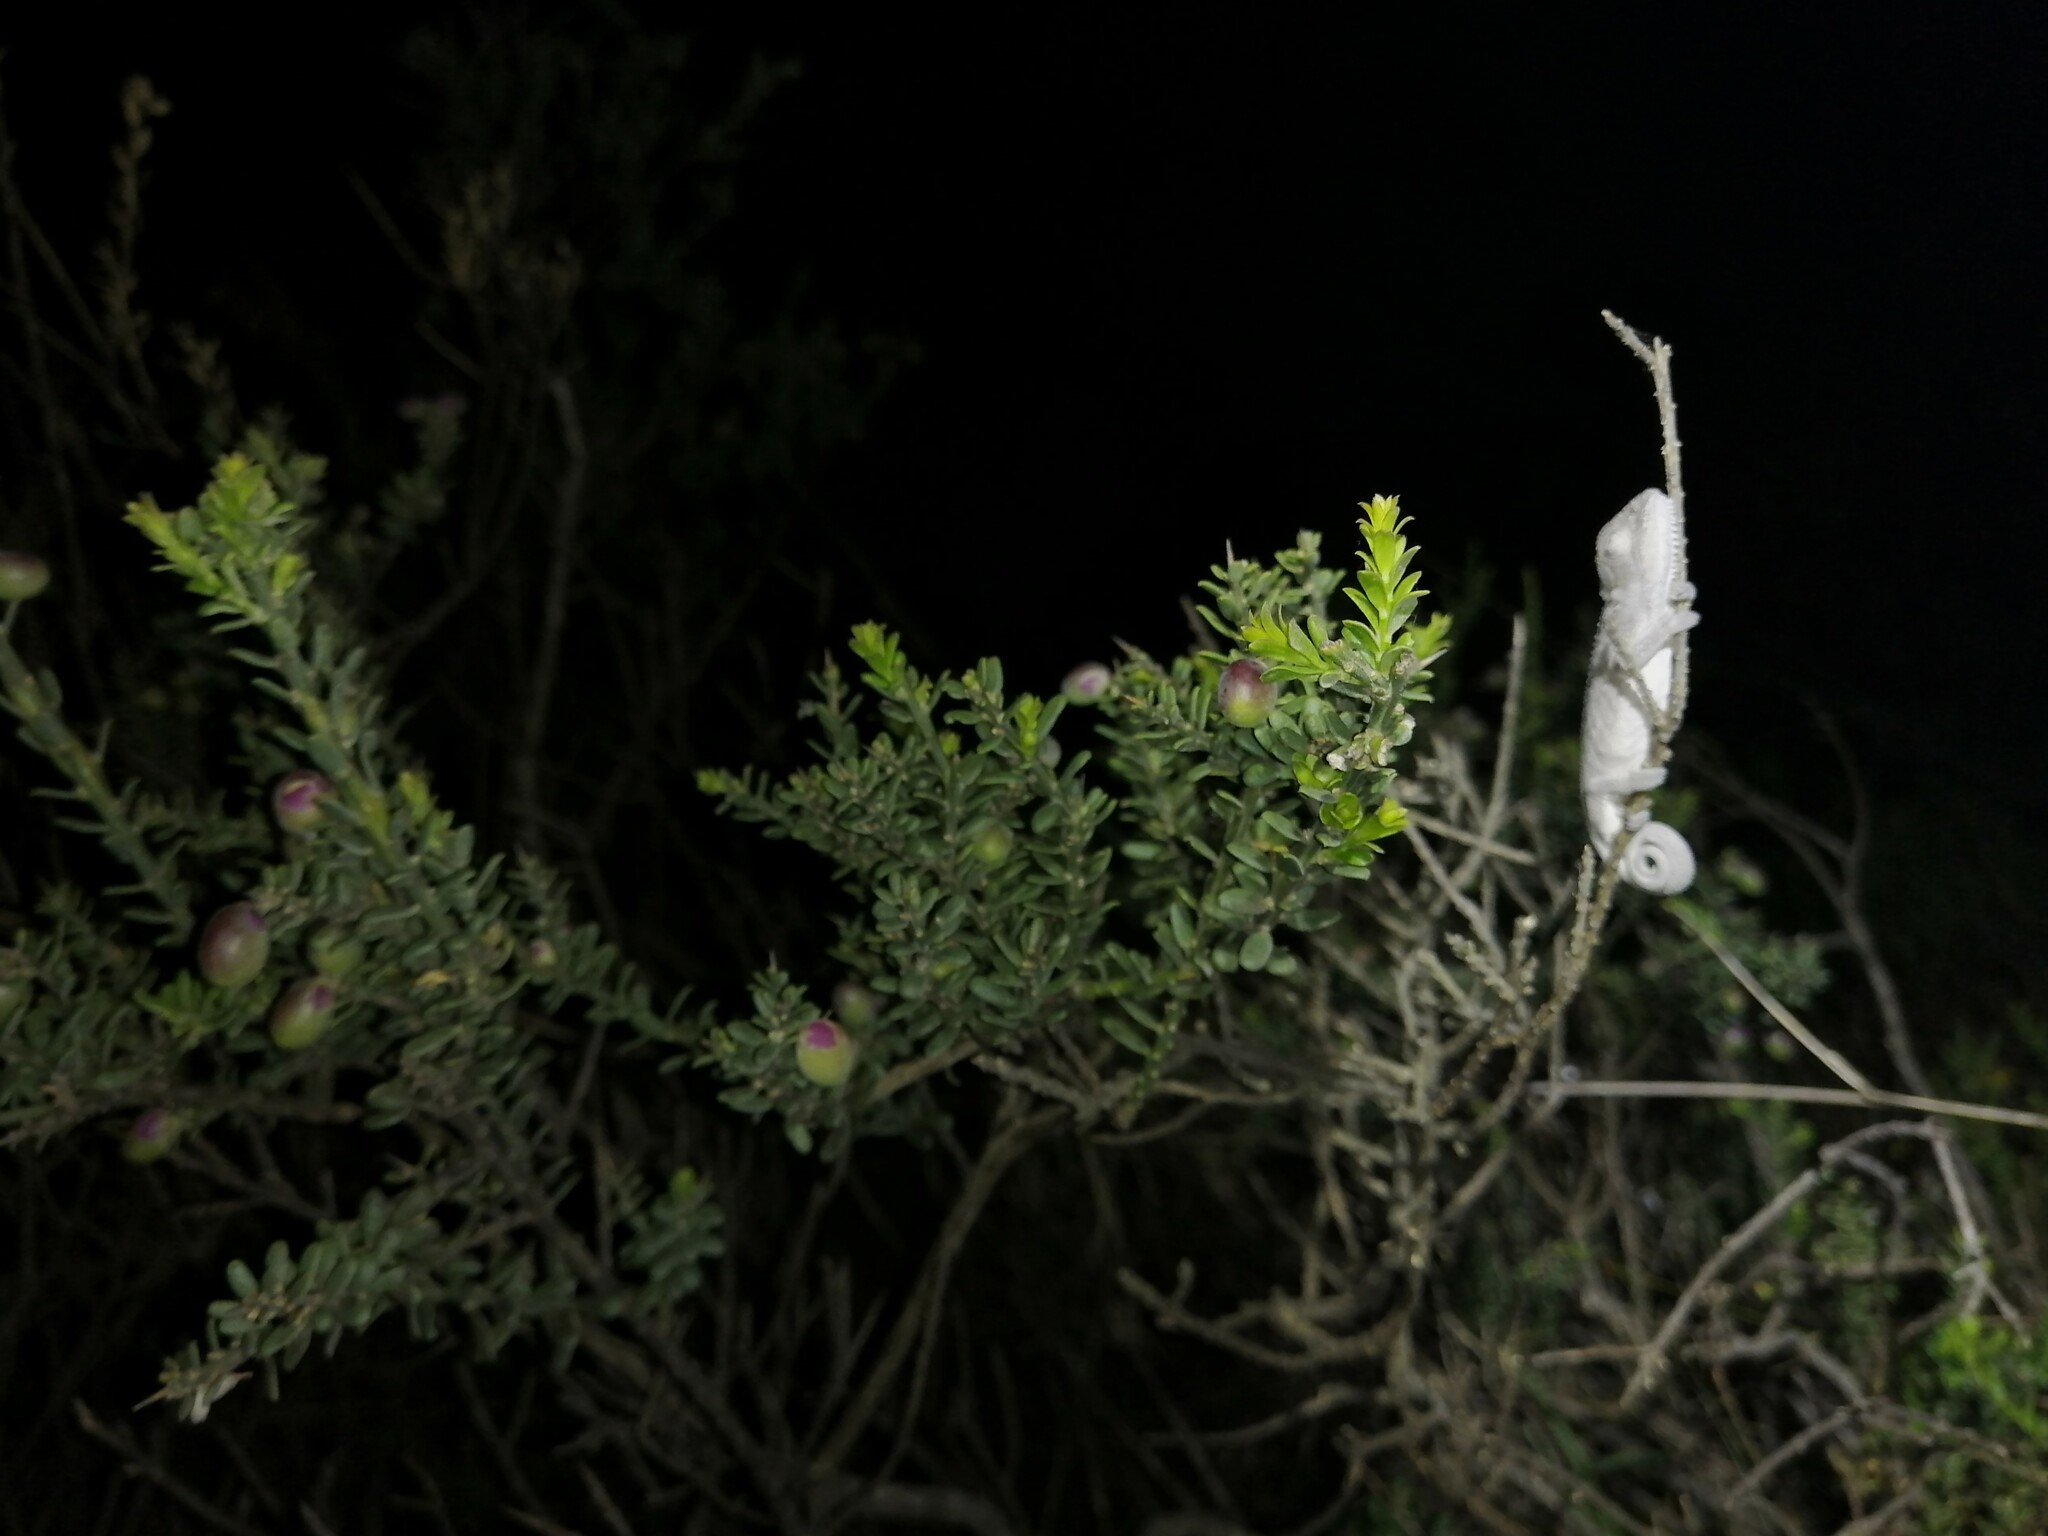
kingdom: Animalia
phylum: Chordata
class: Squamata
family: Chamaeleonidae
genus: Bradypodion
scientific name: Bradypodion pumilum
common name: Cape dwarf chameleon
